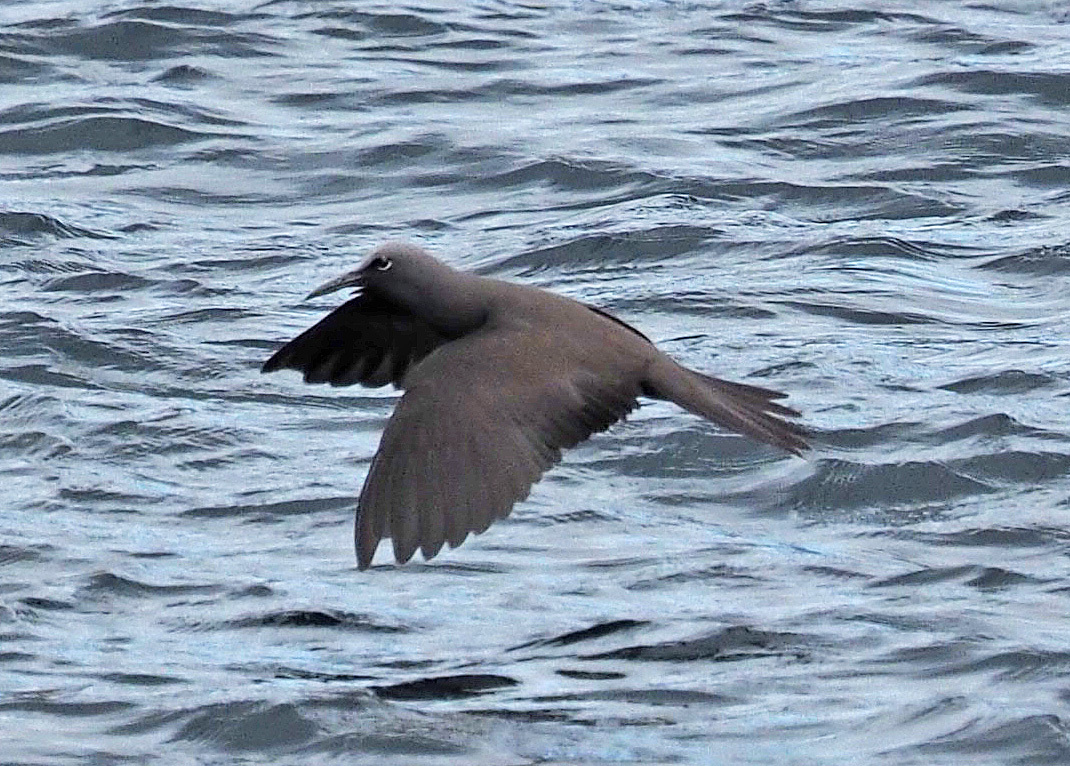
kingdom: Animalia
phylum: Chordata
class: Aves
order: Charadriiformes
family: Laridae
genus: Anous
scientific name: Anous stolidus
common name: Brown noddy
